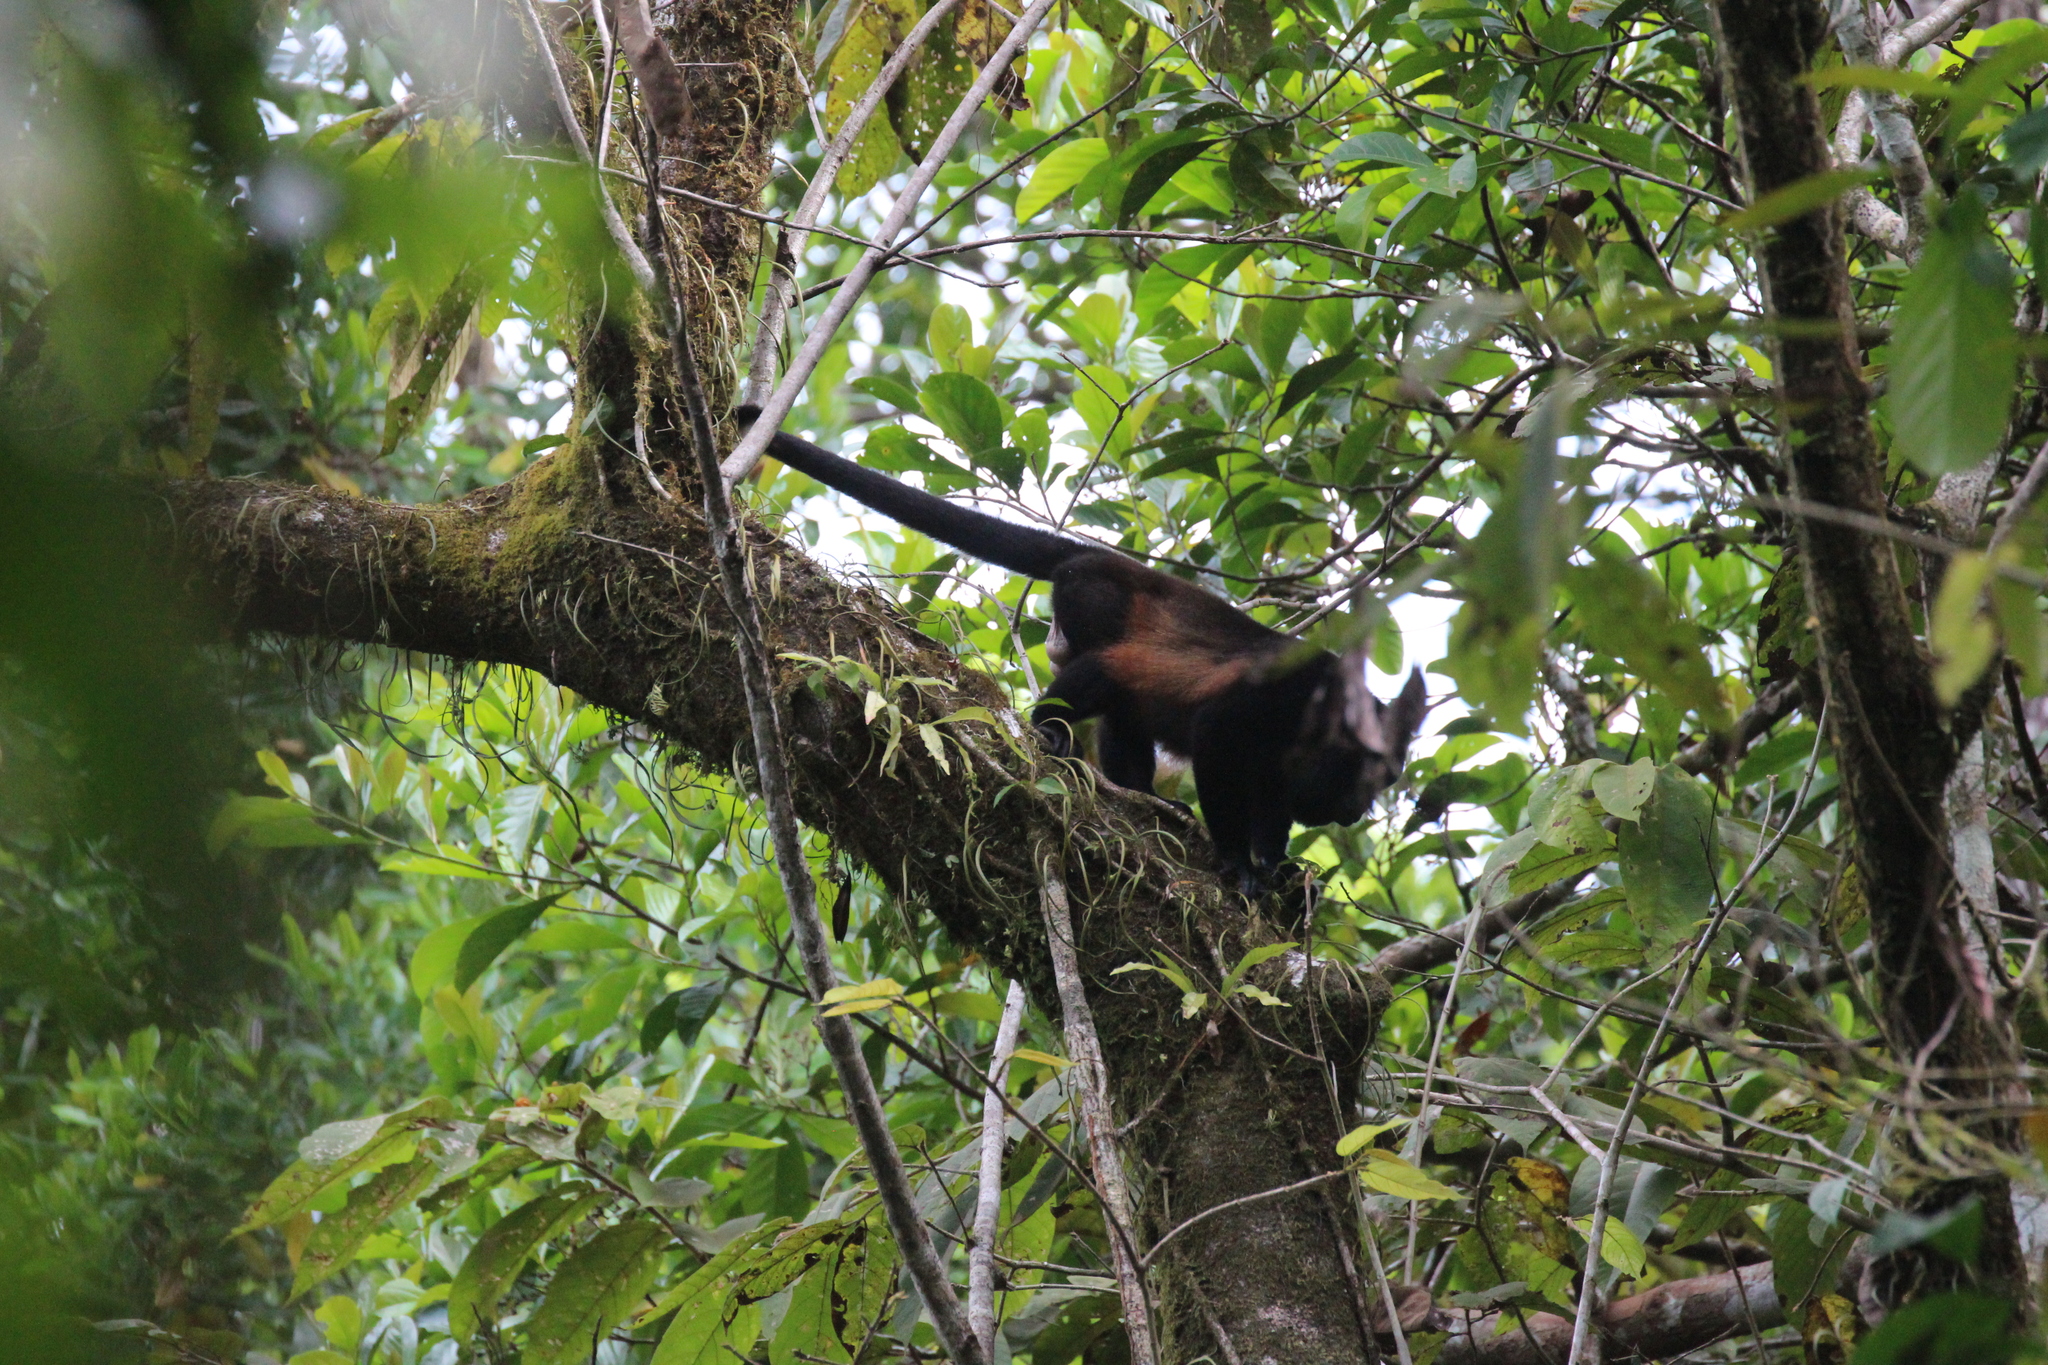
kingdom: Animalia
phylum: Chordata
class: Mammalia
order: Primates
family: Atelidae
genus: Alouatta
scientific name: Alouatta palliata
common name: Mantled howler
